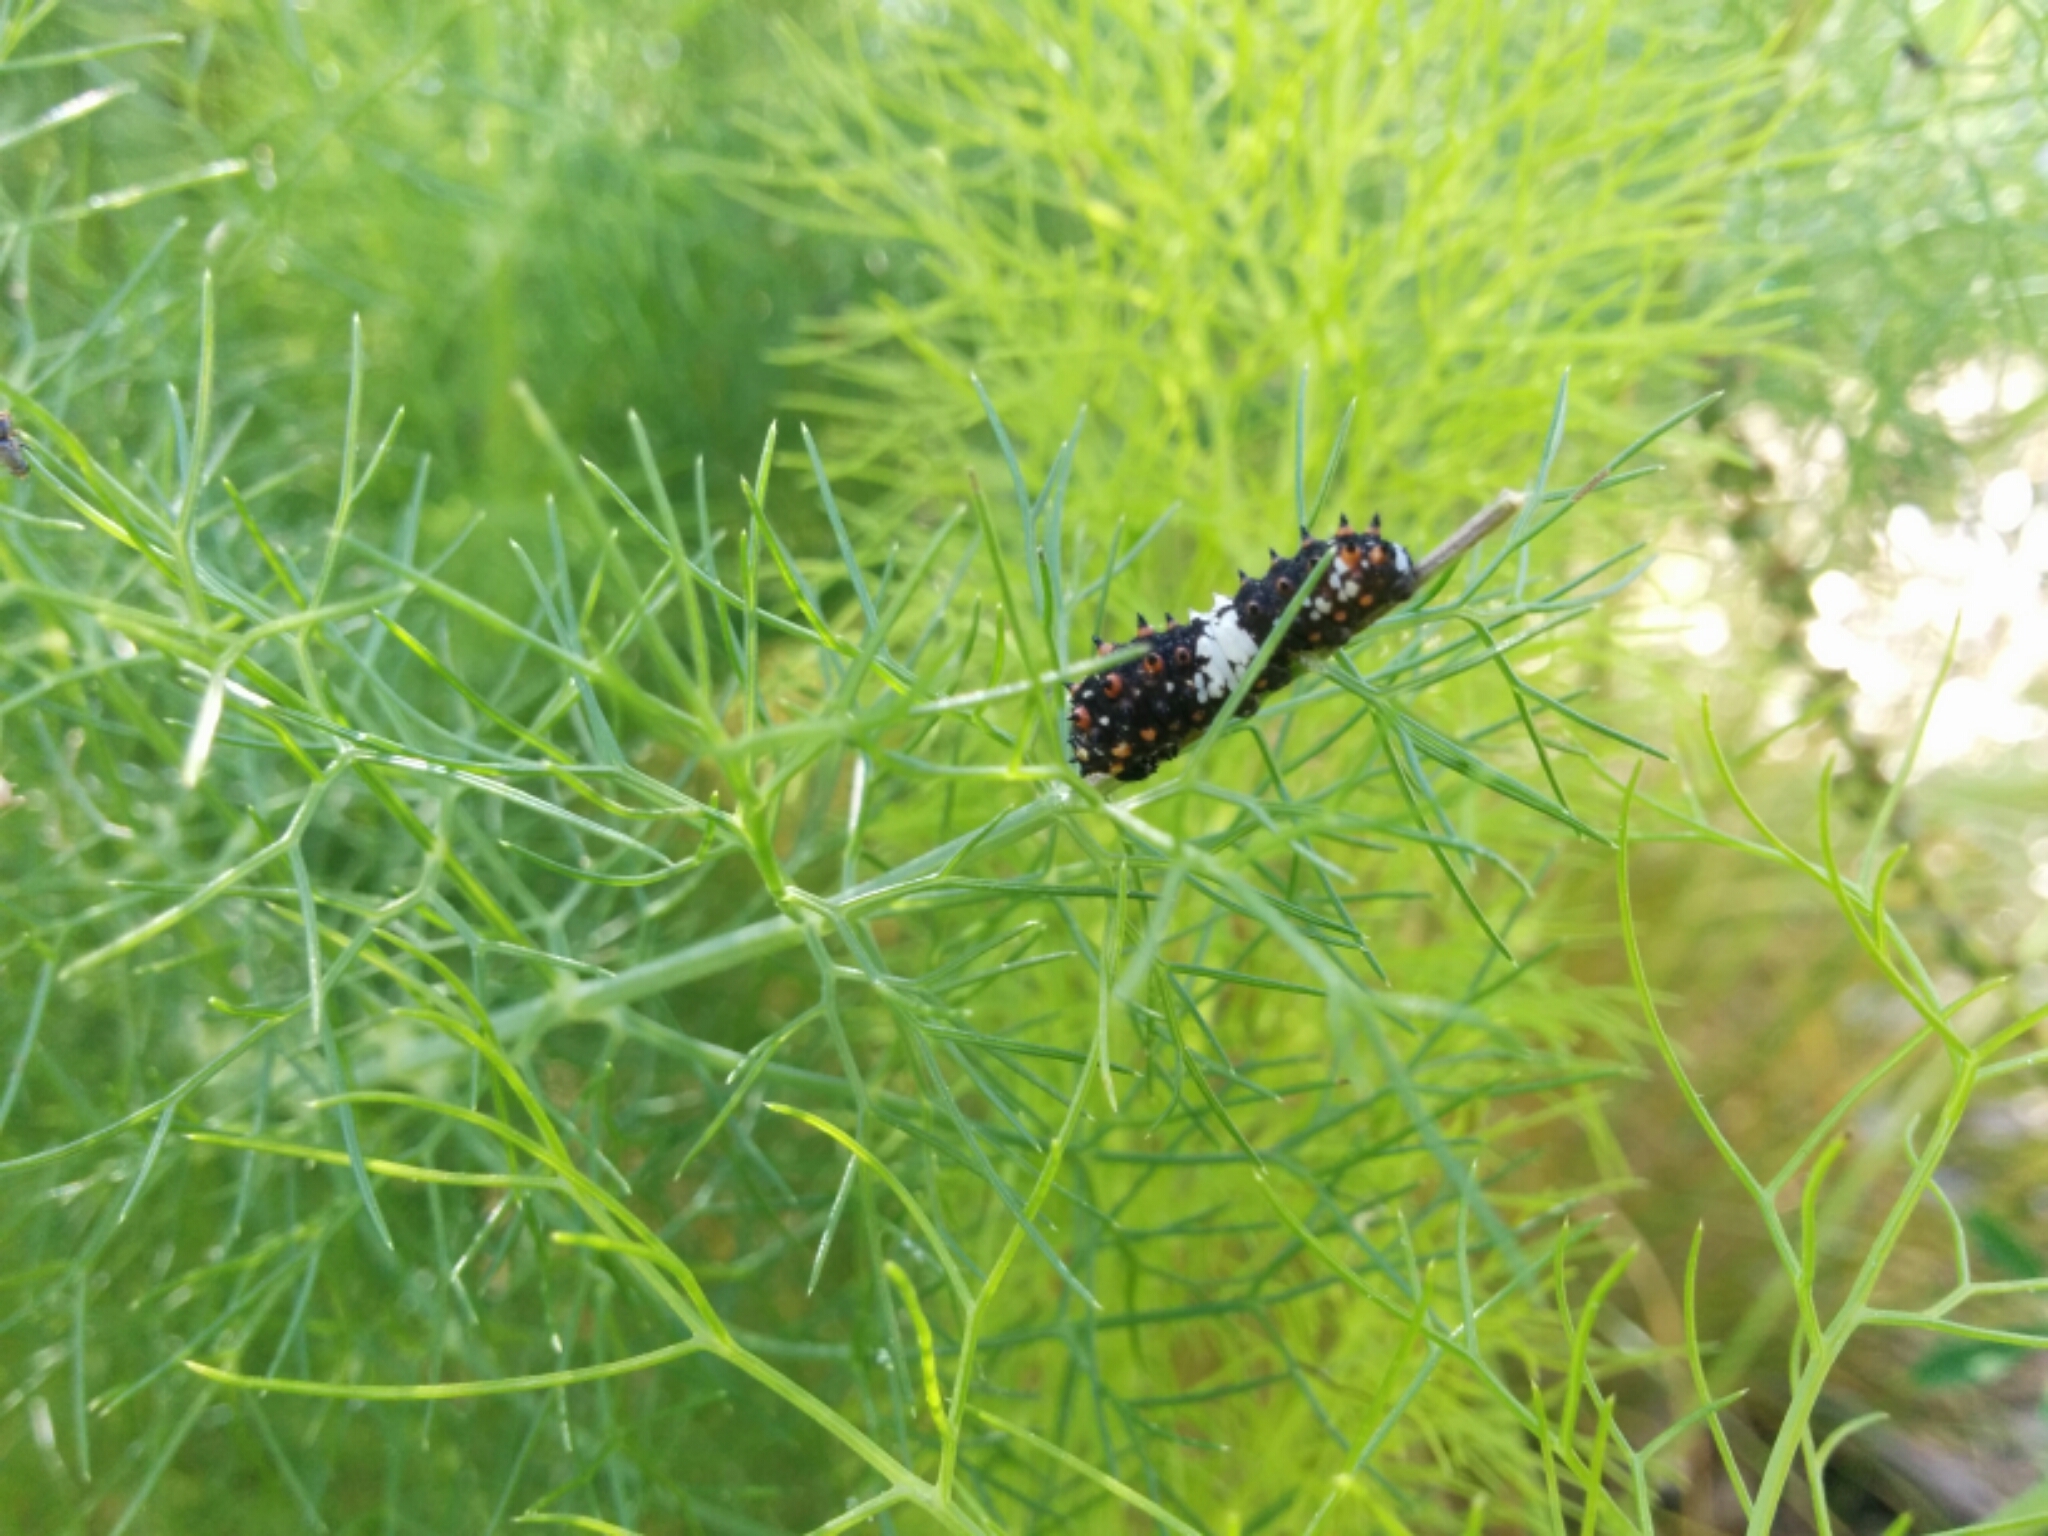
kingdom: Animalia
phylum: Arthropoda
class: Insecta
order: Lepidoptera
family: Papilionidae
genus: Papilio
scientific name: Papilio zelicaon
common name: Anise swallowtail
